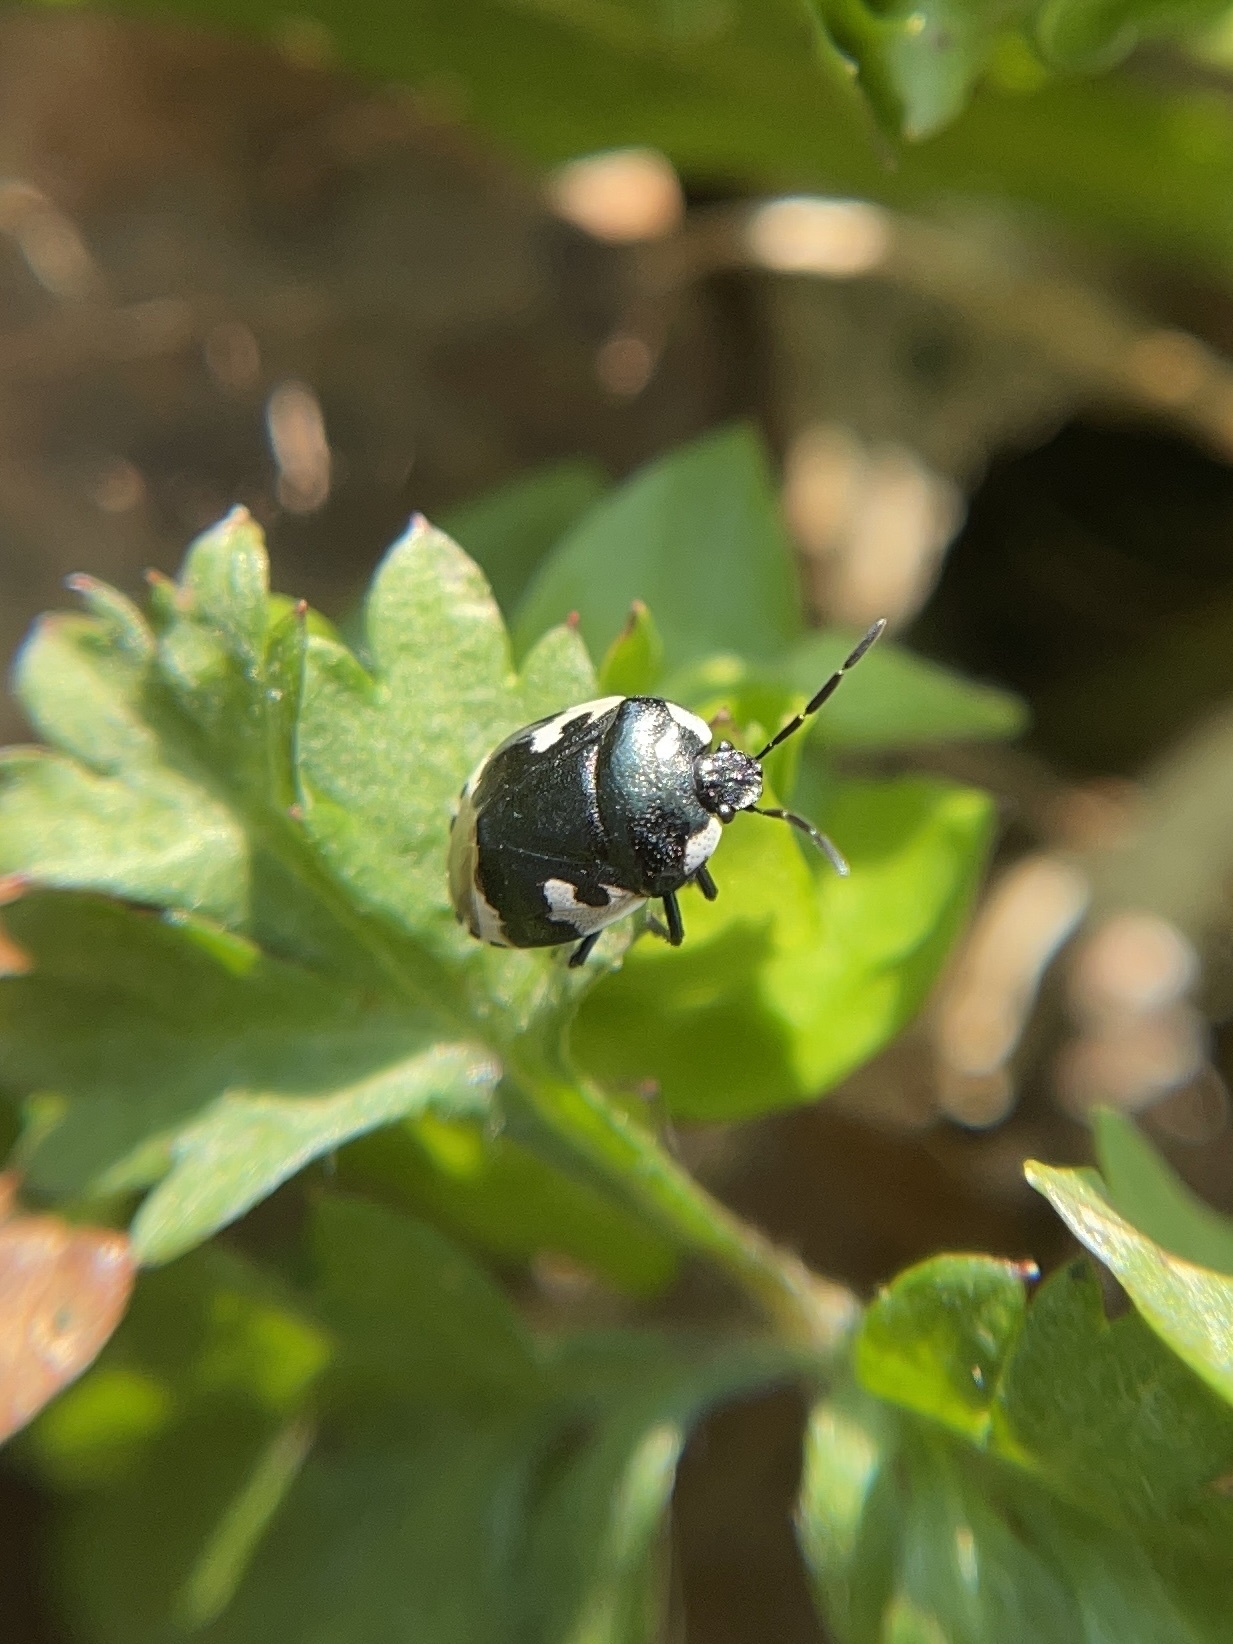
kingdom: Animalia
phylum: Arthropoda
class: Insecta
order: Hemiptera
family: Cydnidae
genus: Tritomegas
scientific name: Tritomegas bicolor
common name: Pied shieldbug
